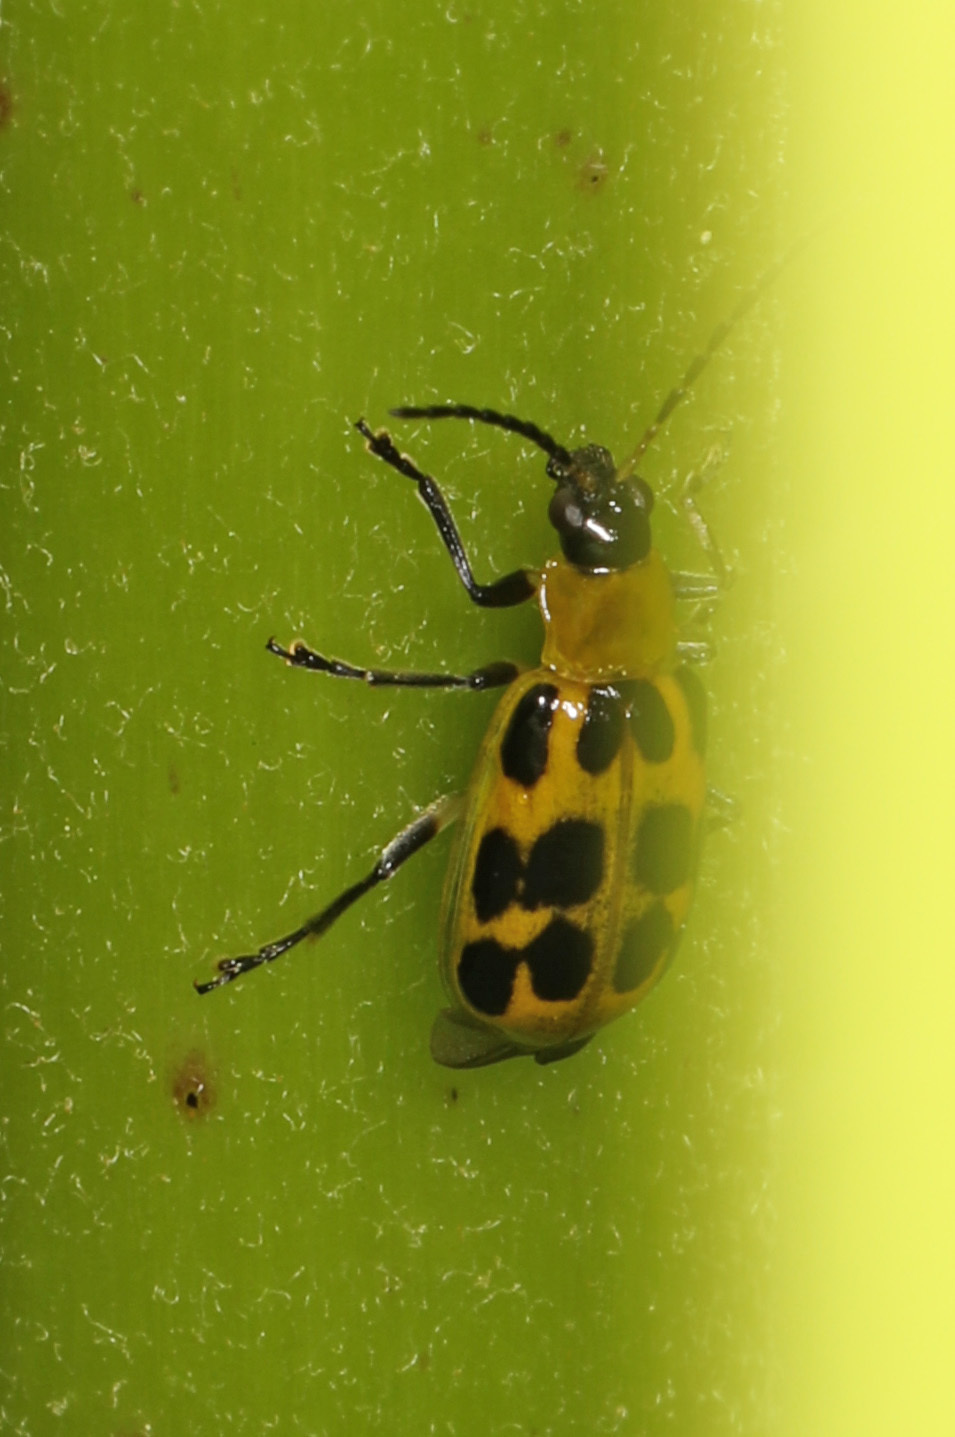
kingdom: Animalia
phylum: Arthropoda
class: Insecta
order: Coleoptera
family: Chrysomelidae
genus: Diabrotica
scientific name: Diabrotica undecimpunctata
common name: Spotted cucumber beetle
